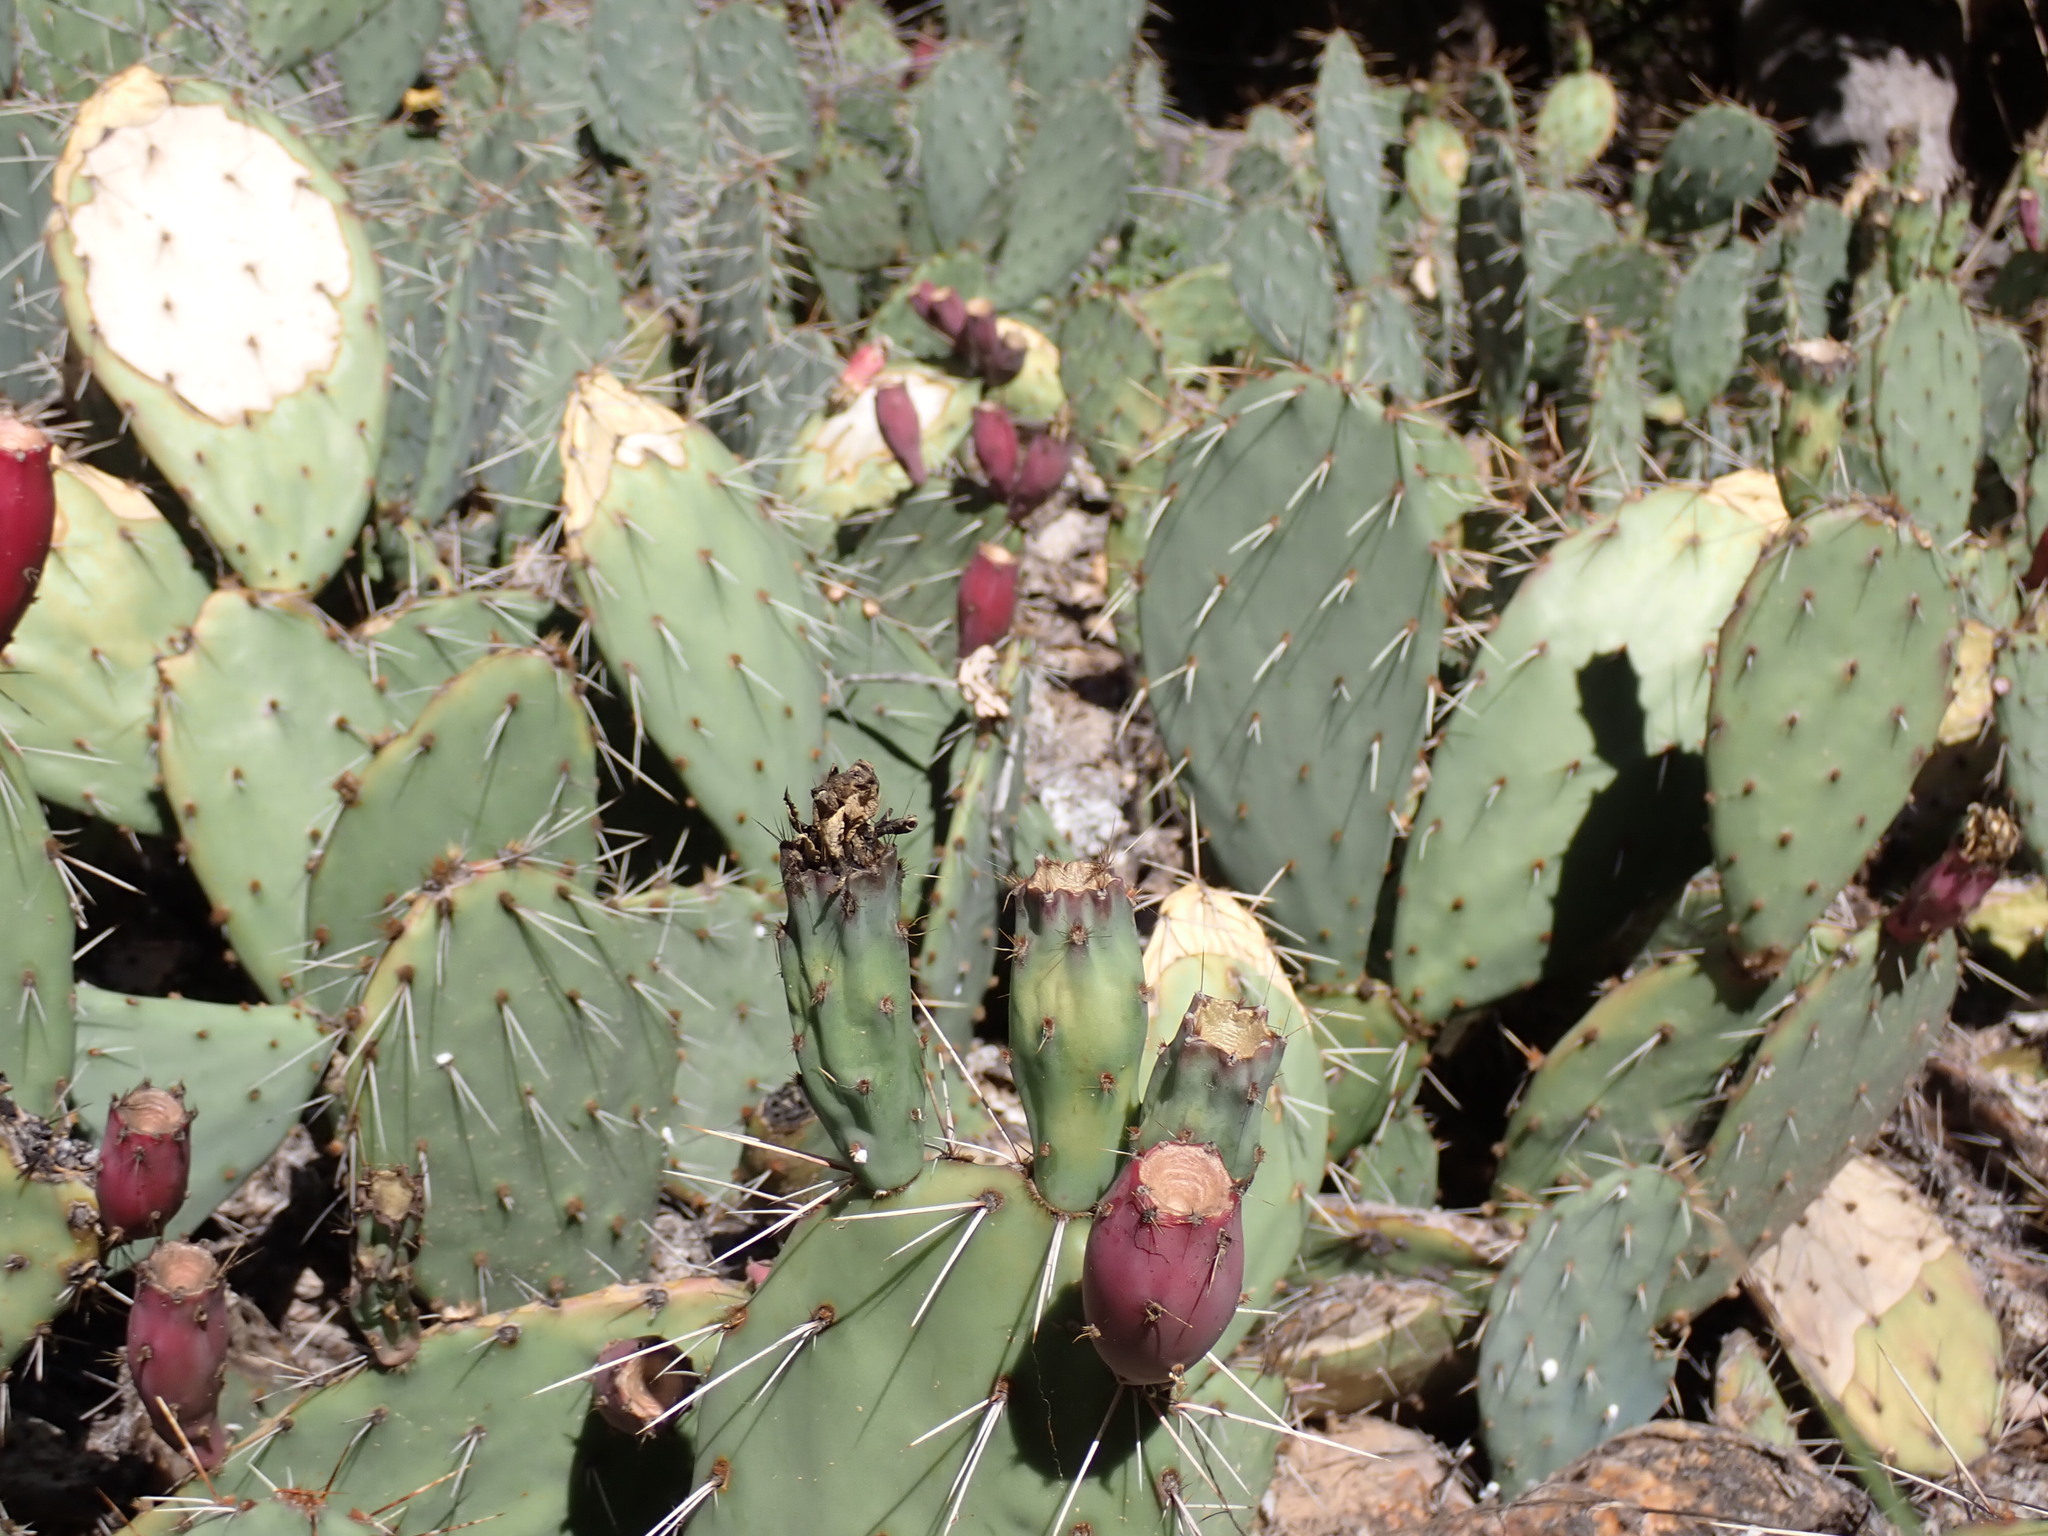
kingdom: Plantae
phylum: Tracheophyta
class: Magnoliopsida
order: Caryophyllales
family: Cactaceae
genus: Opuntia
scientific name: Opuntia phaeacantha
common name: New mexico prickly-pear
